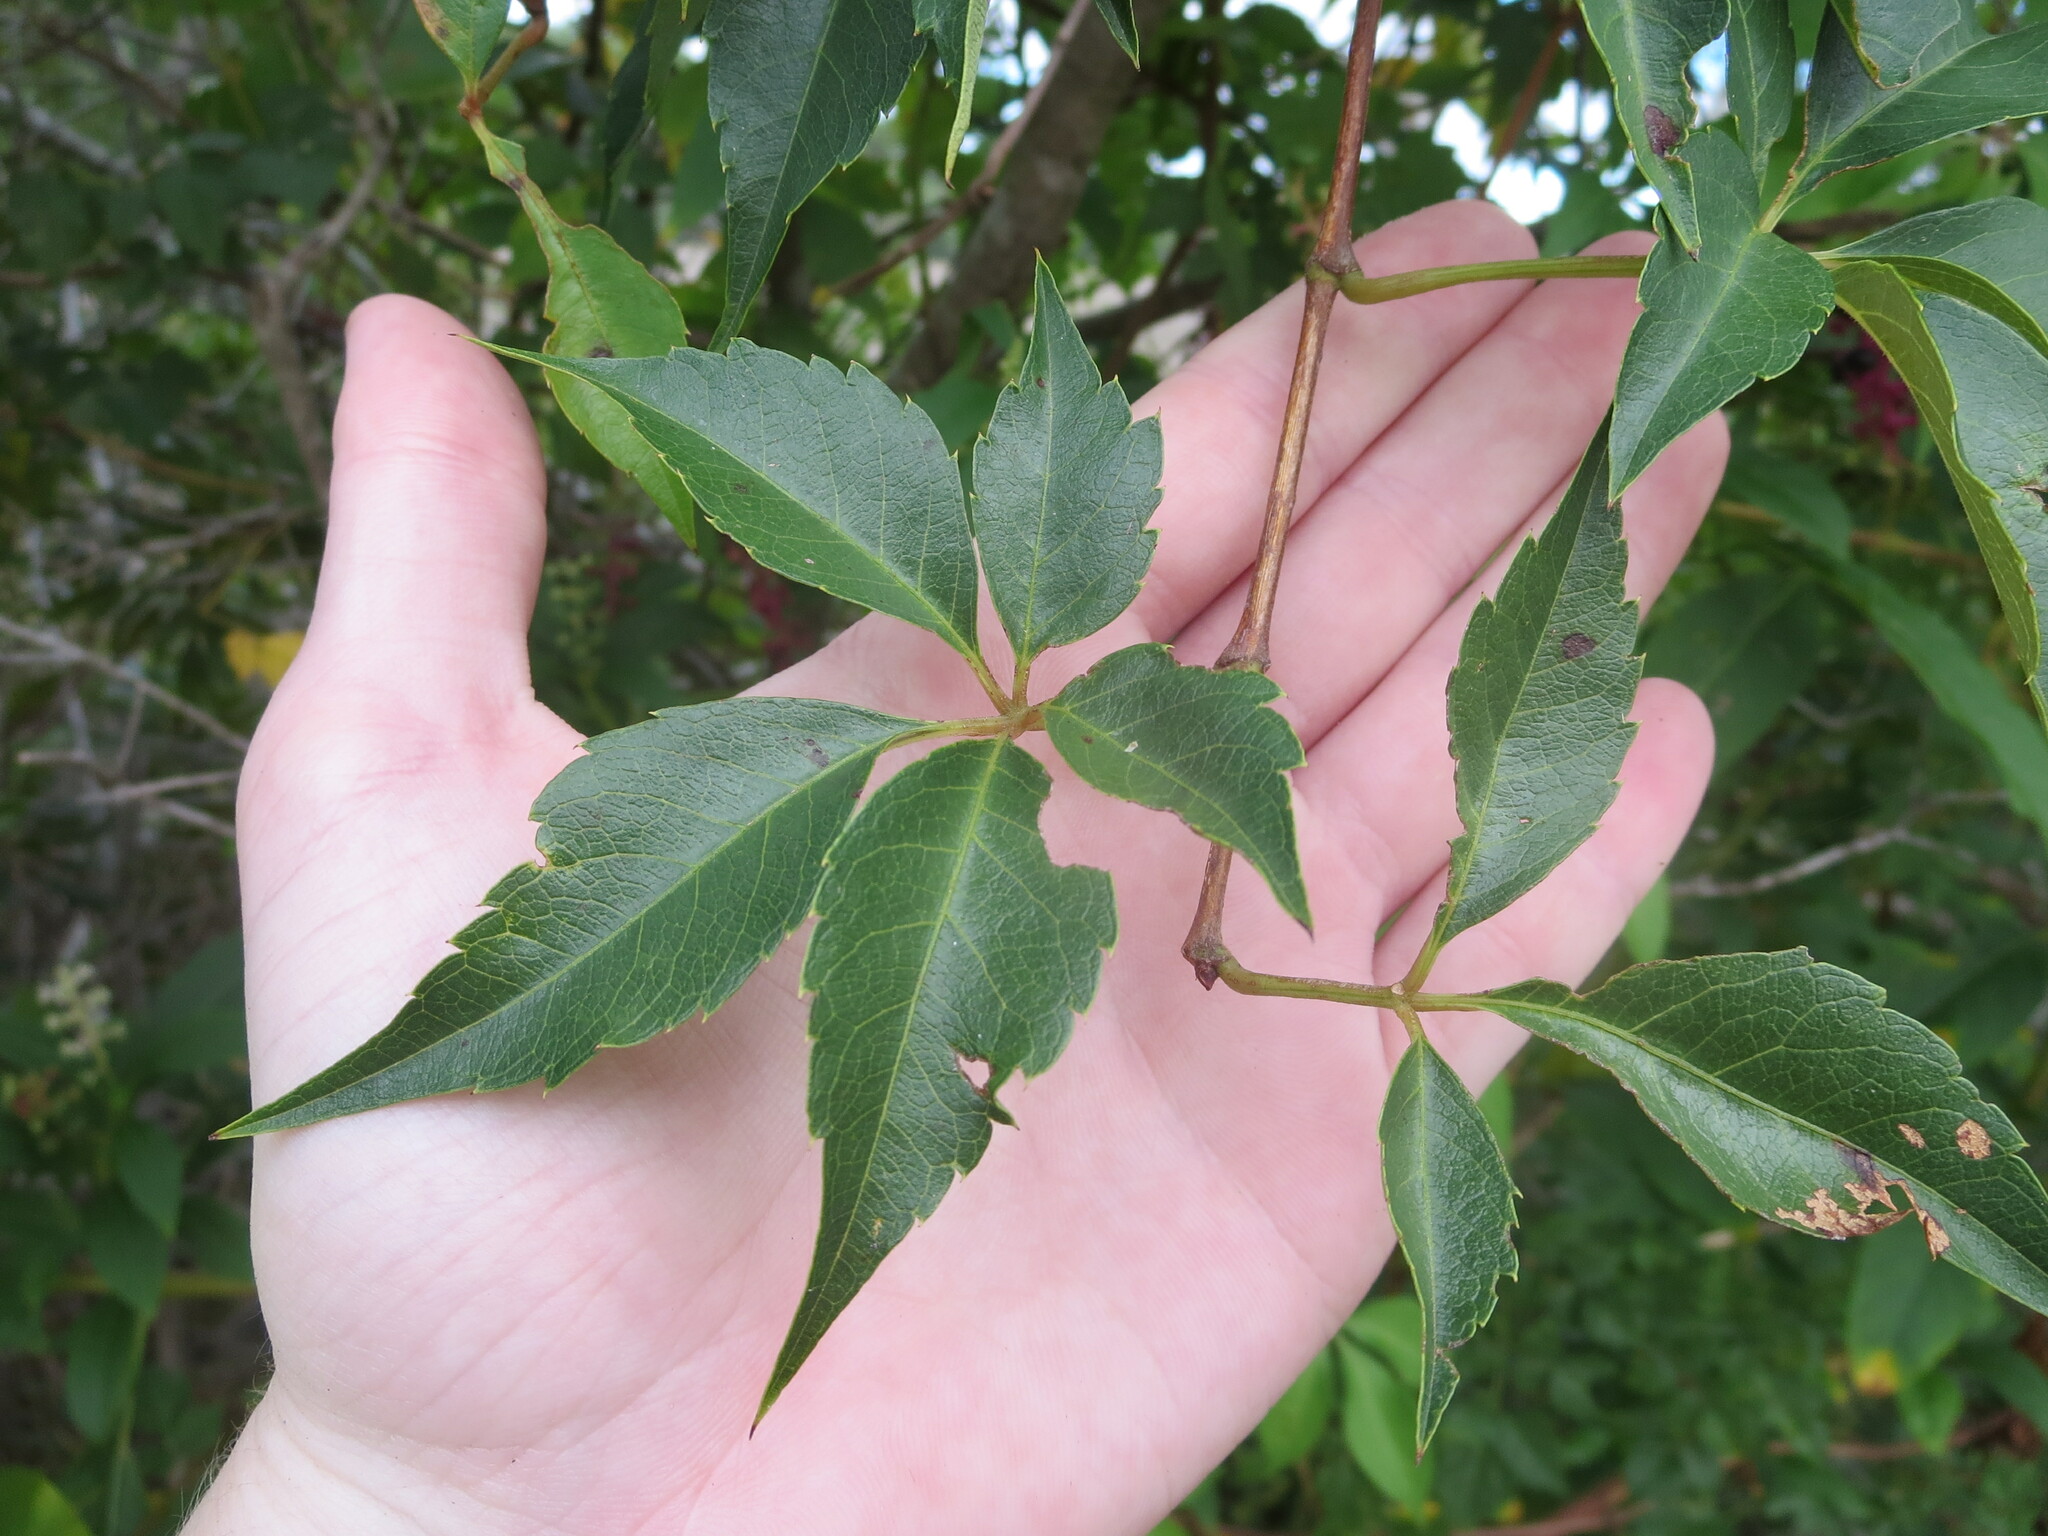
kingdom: Plantae
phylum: Tracheophyta
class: Magnoliopsida
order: Vitales
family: Vitaceae
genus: Parthenocissus
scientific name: Parthenocissus quinquefolia
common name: Virginia-creeper
